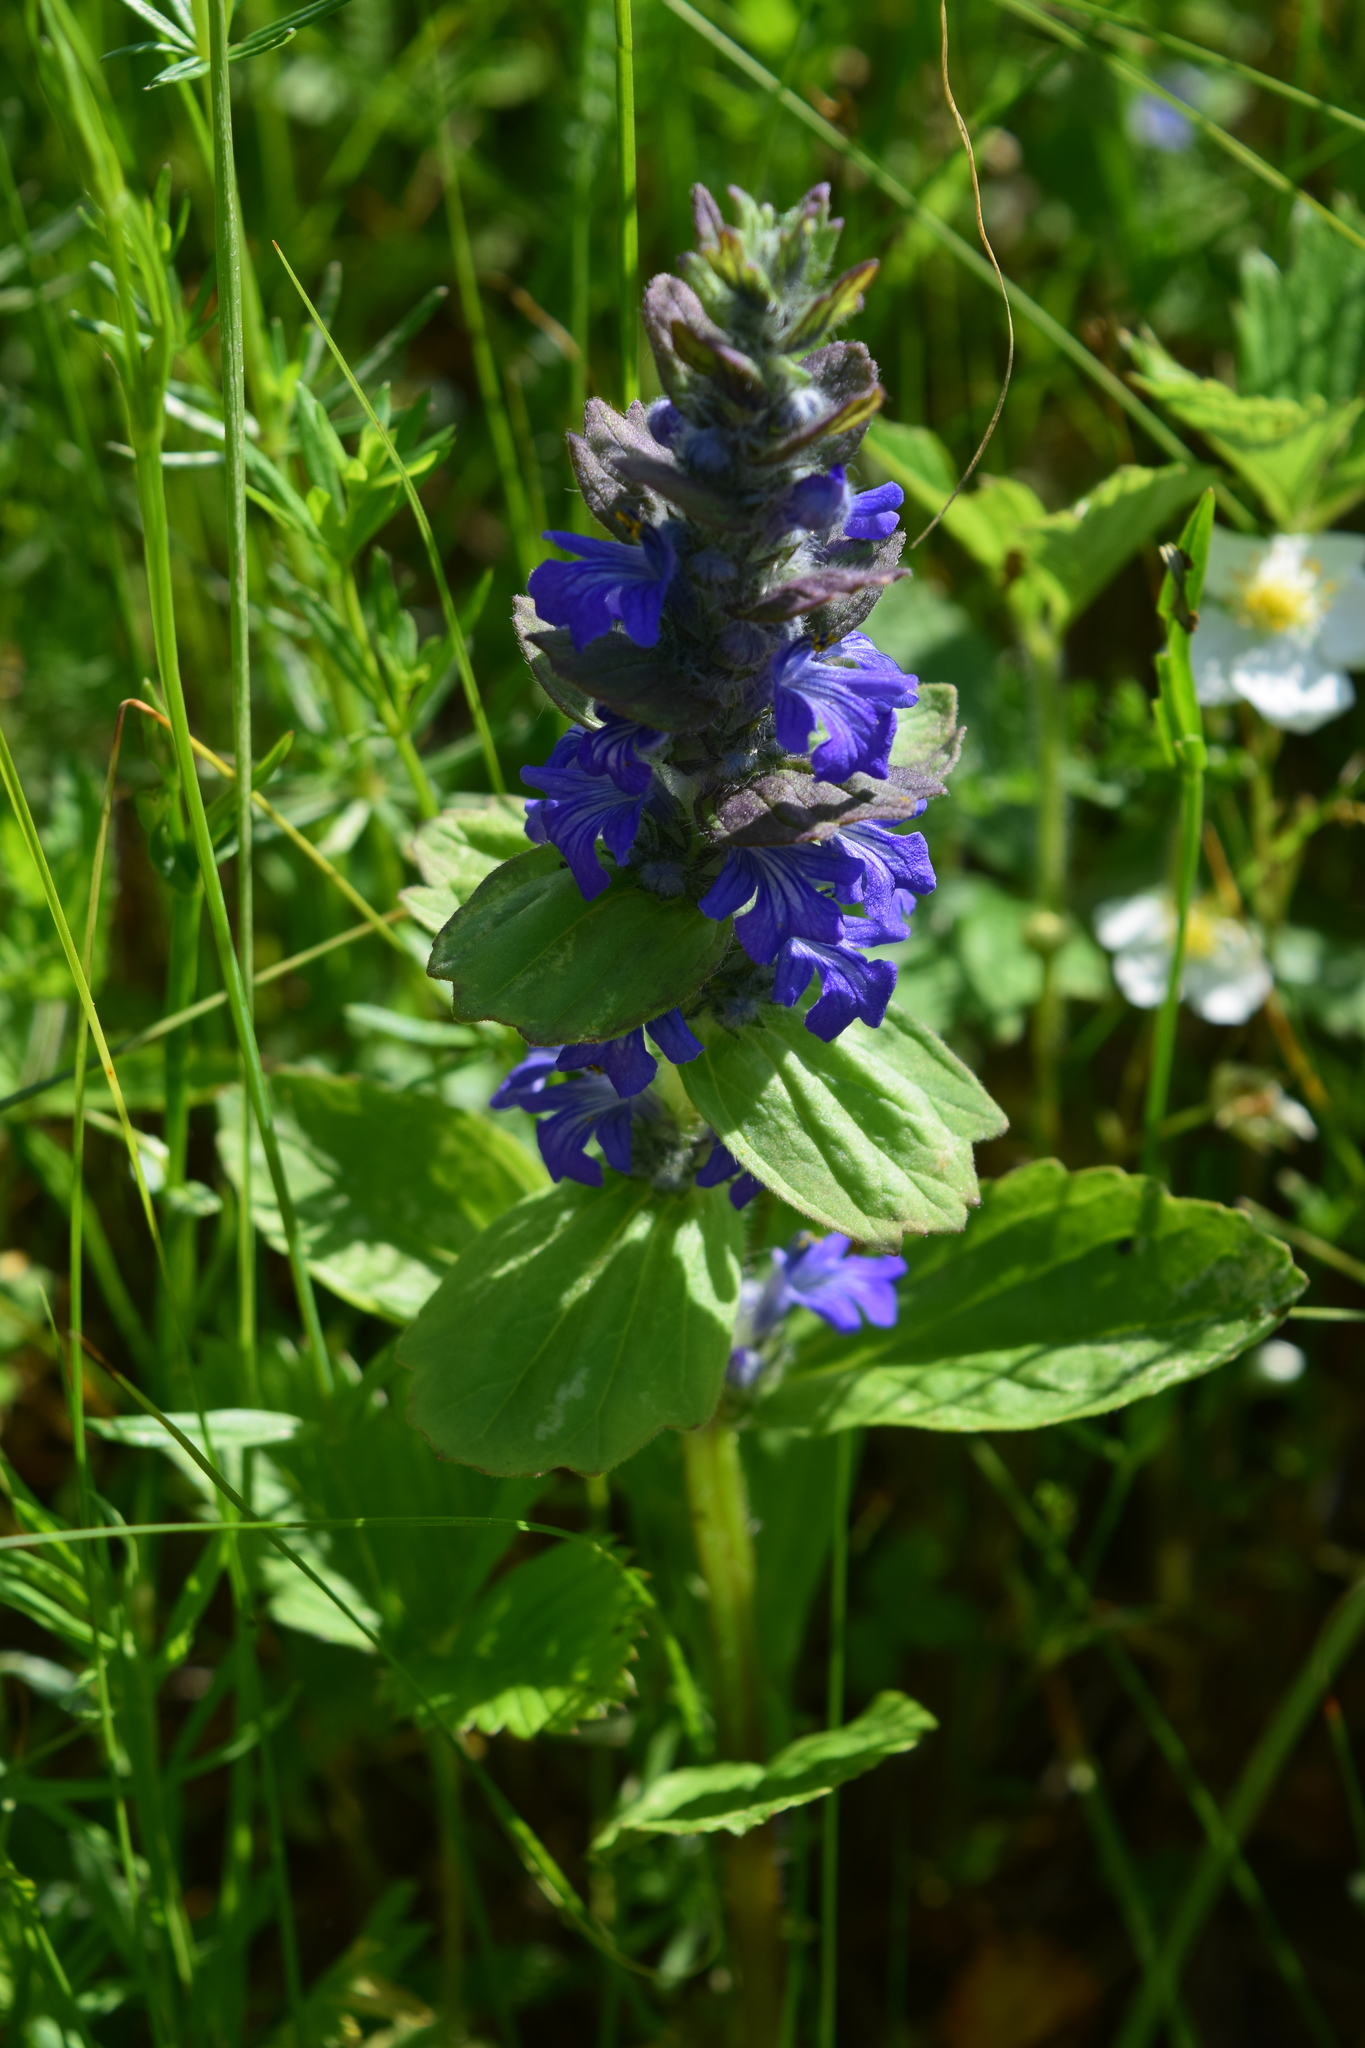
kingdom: Plantae
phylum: Tracheophyta
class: Magnoliopsida
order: Lamiales
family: Lamiaceae
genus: Ajuga
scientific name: Ajuga genevensis
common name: Blue bugle
